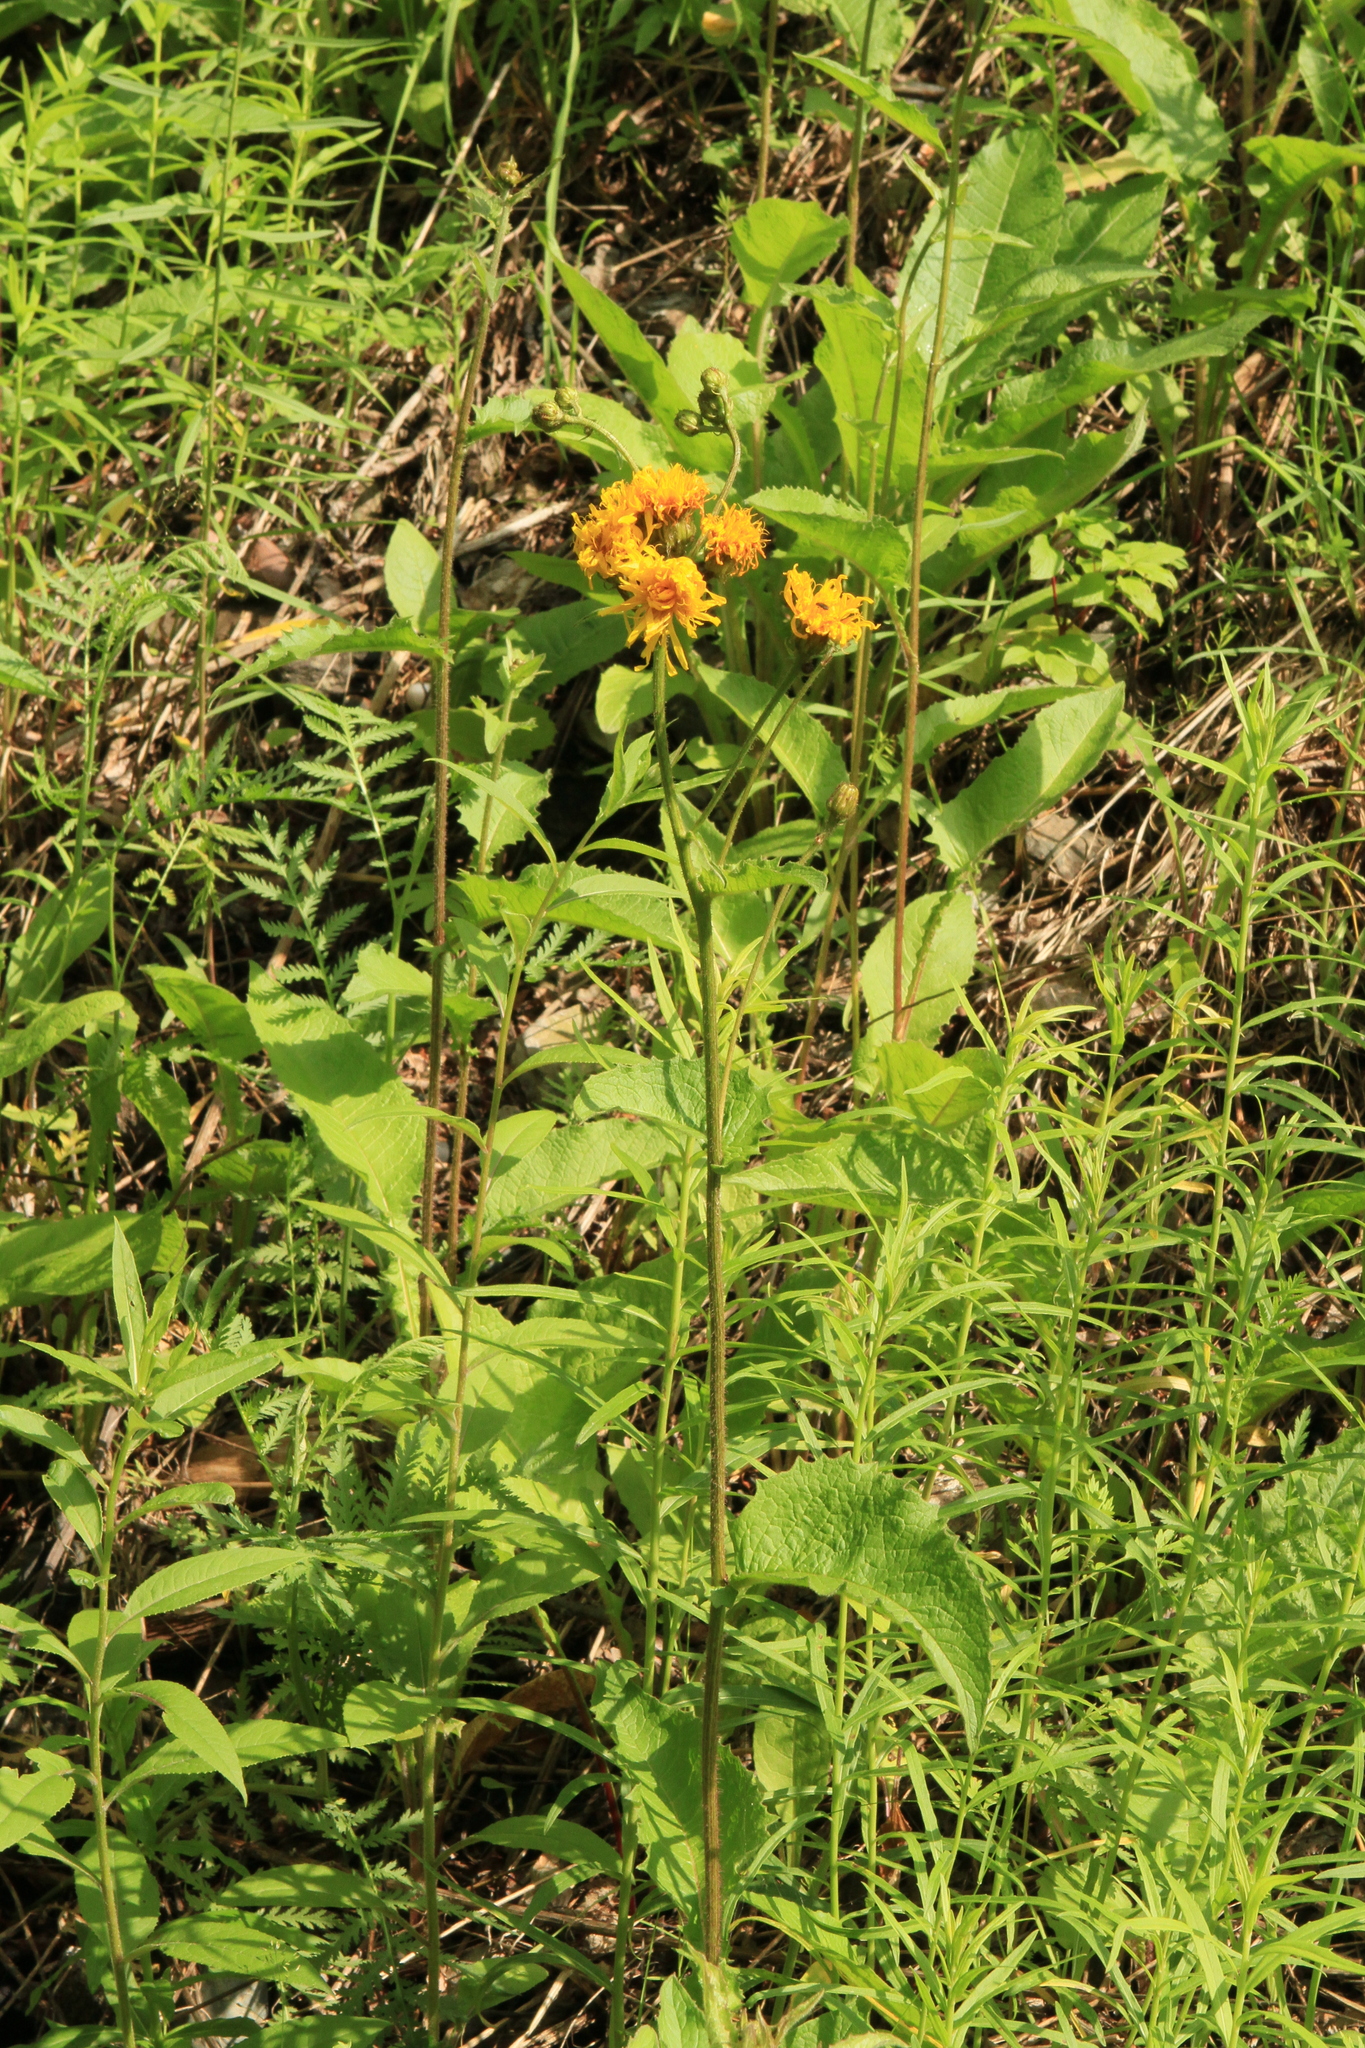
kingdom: Plantae
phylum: Tracheophyta
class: Magnoliopsida
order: Asterales
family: Asteraceae
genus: Crepis
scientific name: Crepis sibirica
